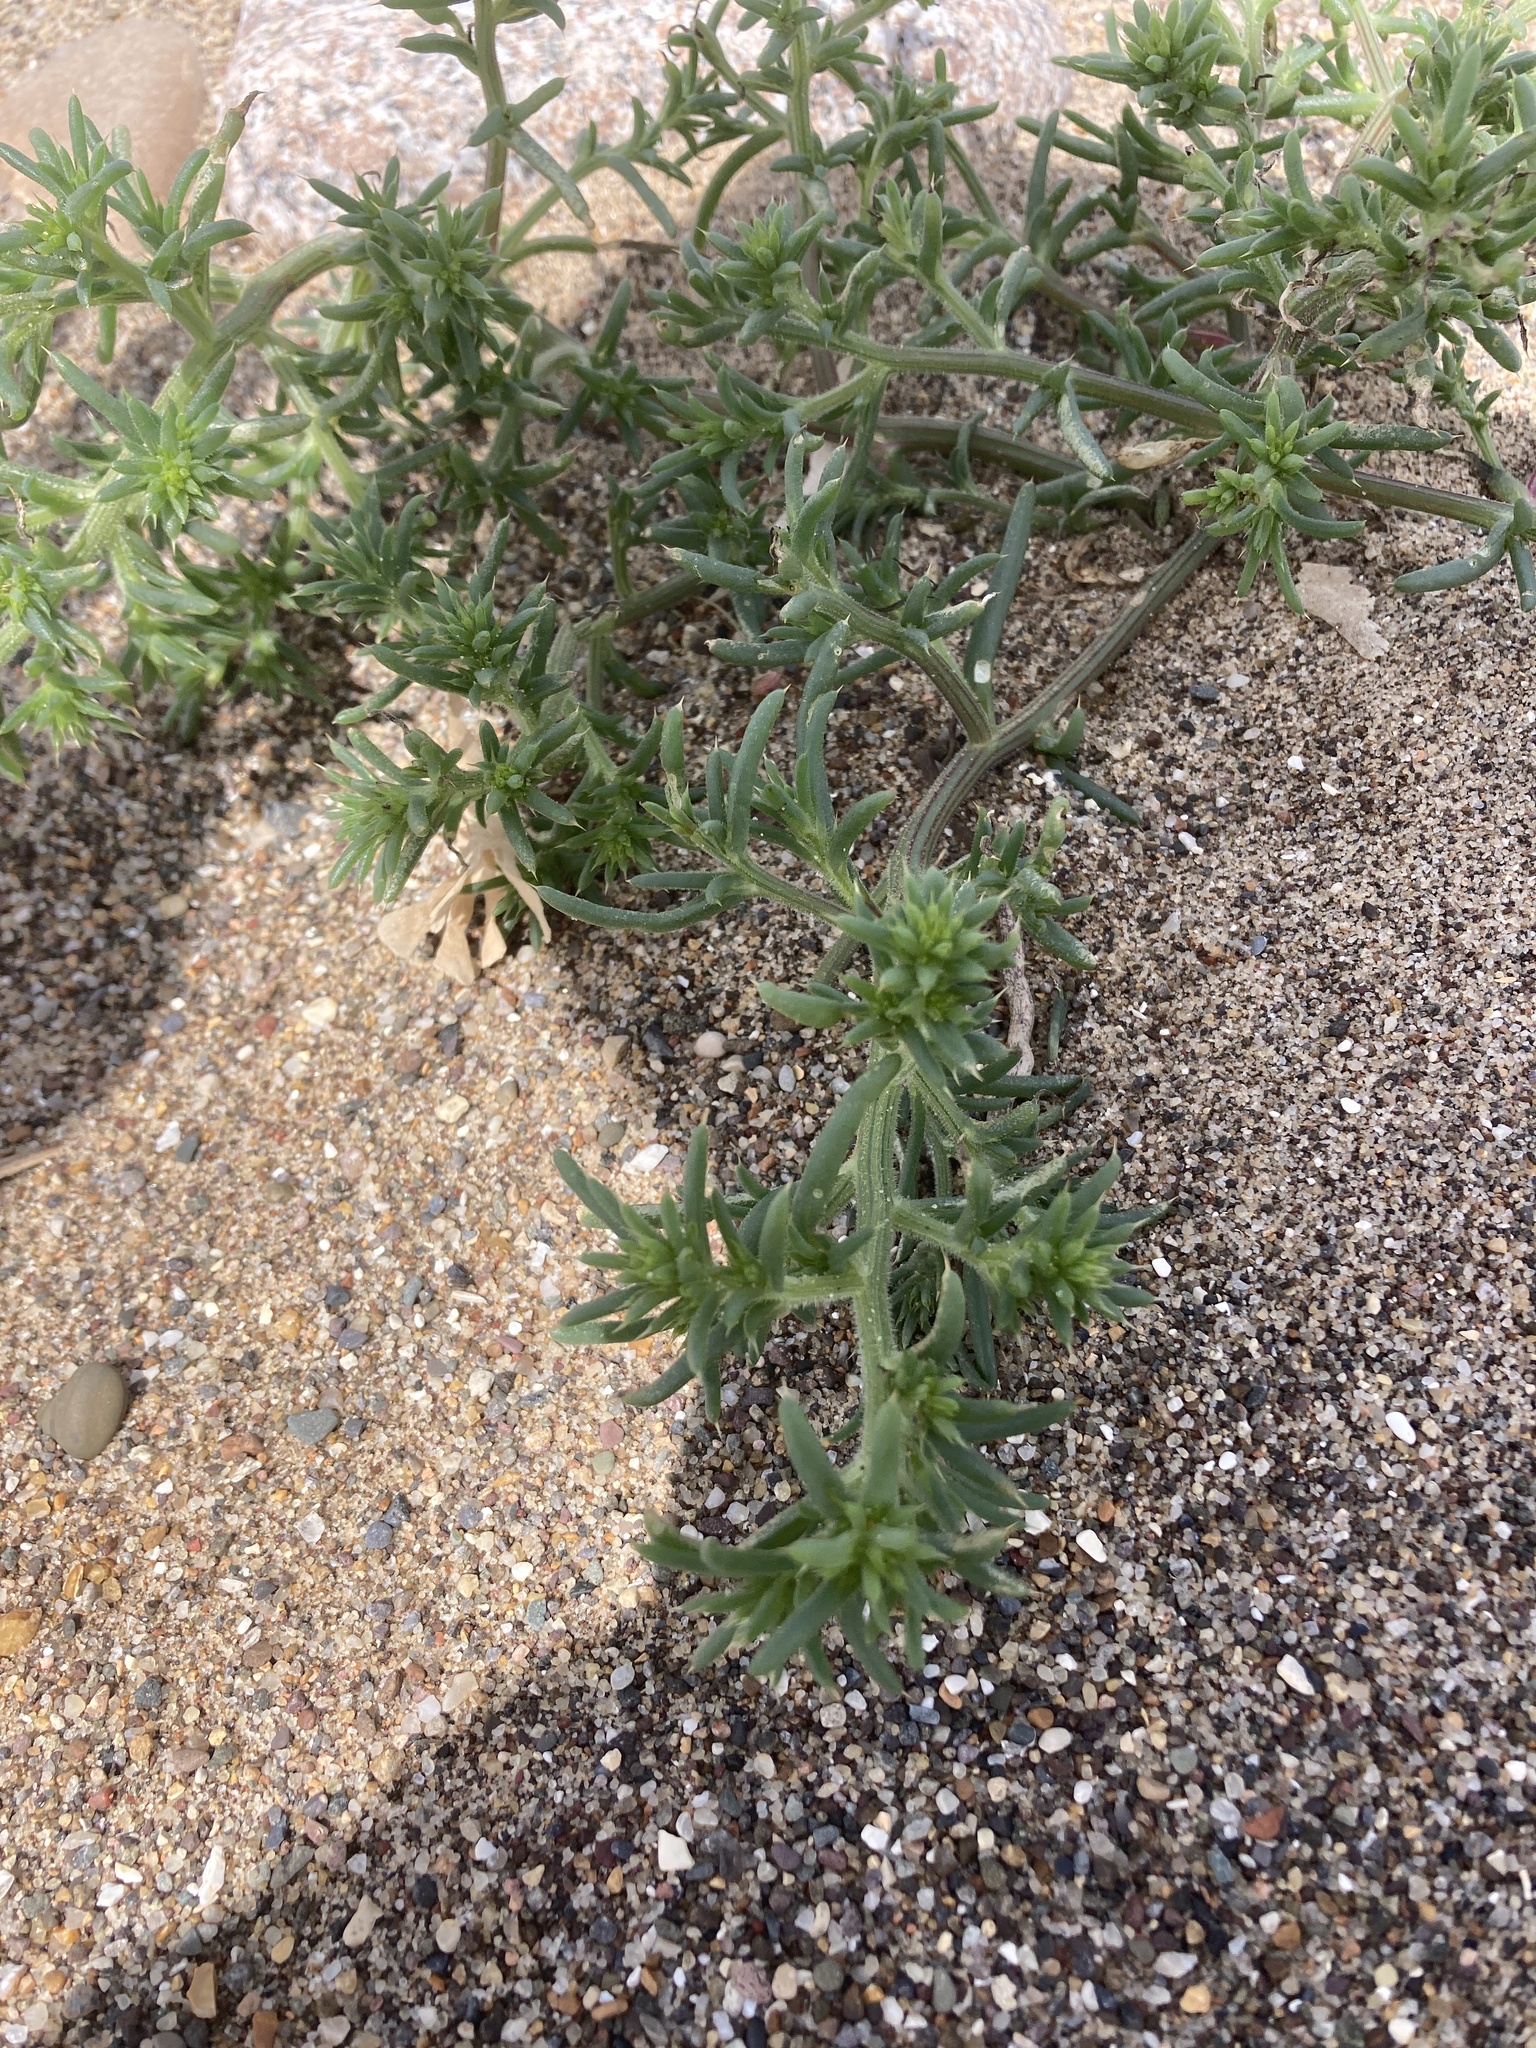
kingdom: Plantae
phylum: Tracheophyta
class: Magnoliopsida
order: Caryophyllales
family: Amaranthaceae
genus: Salsola
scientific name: Salsola kali
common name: Saltwort
